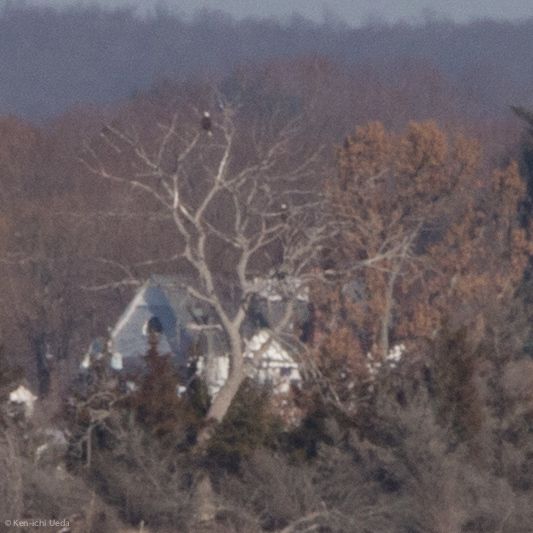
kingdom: Animalia
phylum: Chordata
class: Aves
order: Accipitriformes
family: Accipitridae
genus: Haliaeetus
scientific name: Haliaeetus leucocephalus
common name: Bald eagle
